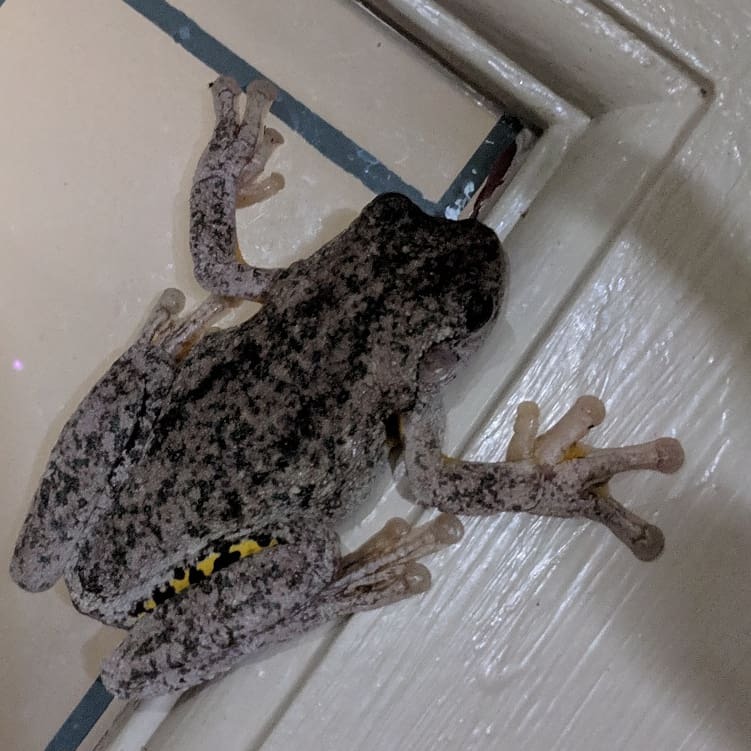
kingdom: Animalia
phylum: Chordata
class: Amphibia
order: Anura
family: Pelodryadidae
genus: Litoria
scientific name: Litoria peronii
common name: Emerald spotted treefrog
